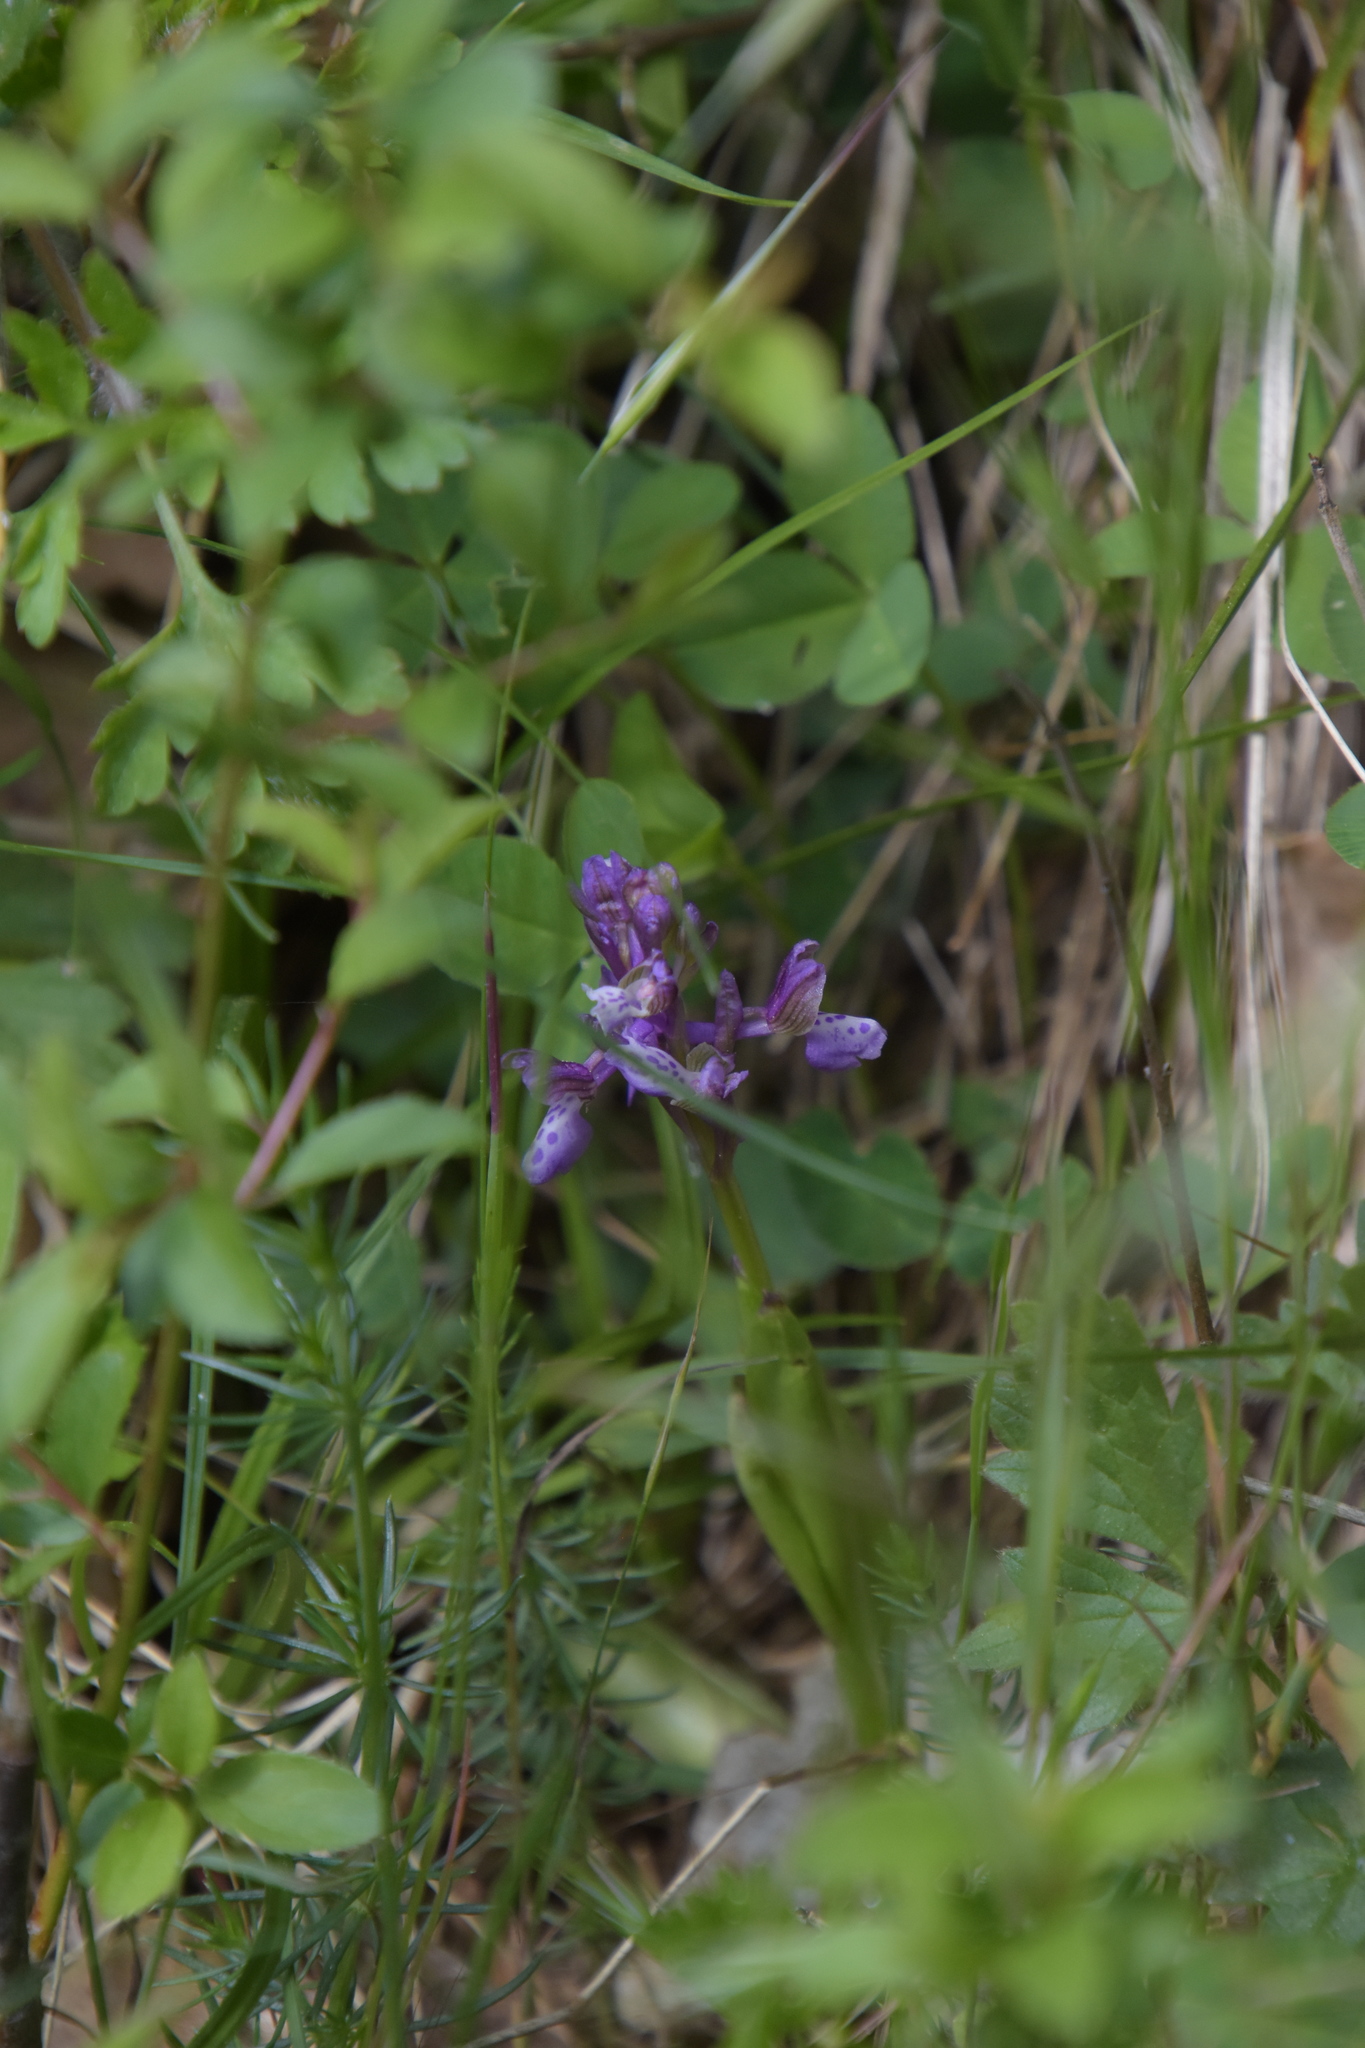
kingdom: Plantae
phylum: Tracheophyta
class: Liliopsida
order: Asparagales
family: Orchidaceae
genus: Anacamptis
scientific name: Anacamptis morio
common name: Green-winged orchid
